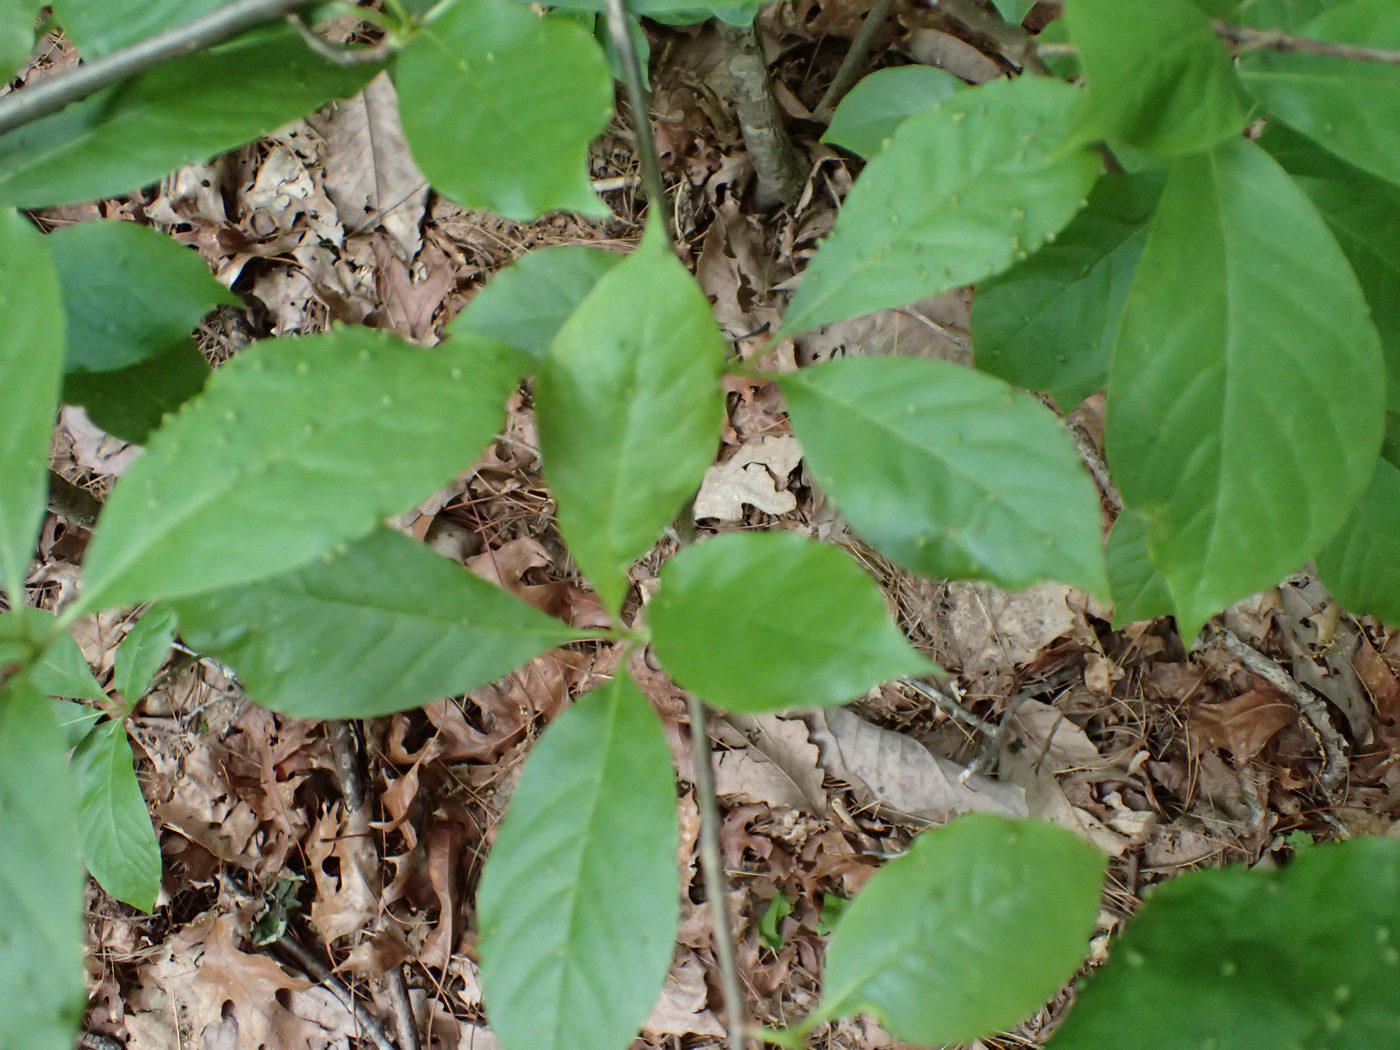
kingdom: Animalia
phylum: Arthropoda
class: Arachnida
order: Trombidiformes
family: Eriophyidae
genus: Aceria
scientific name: Aceria
